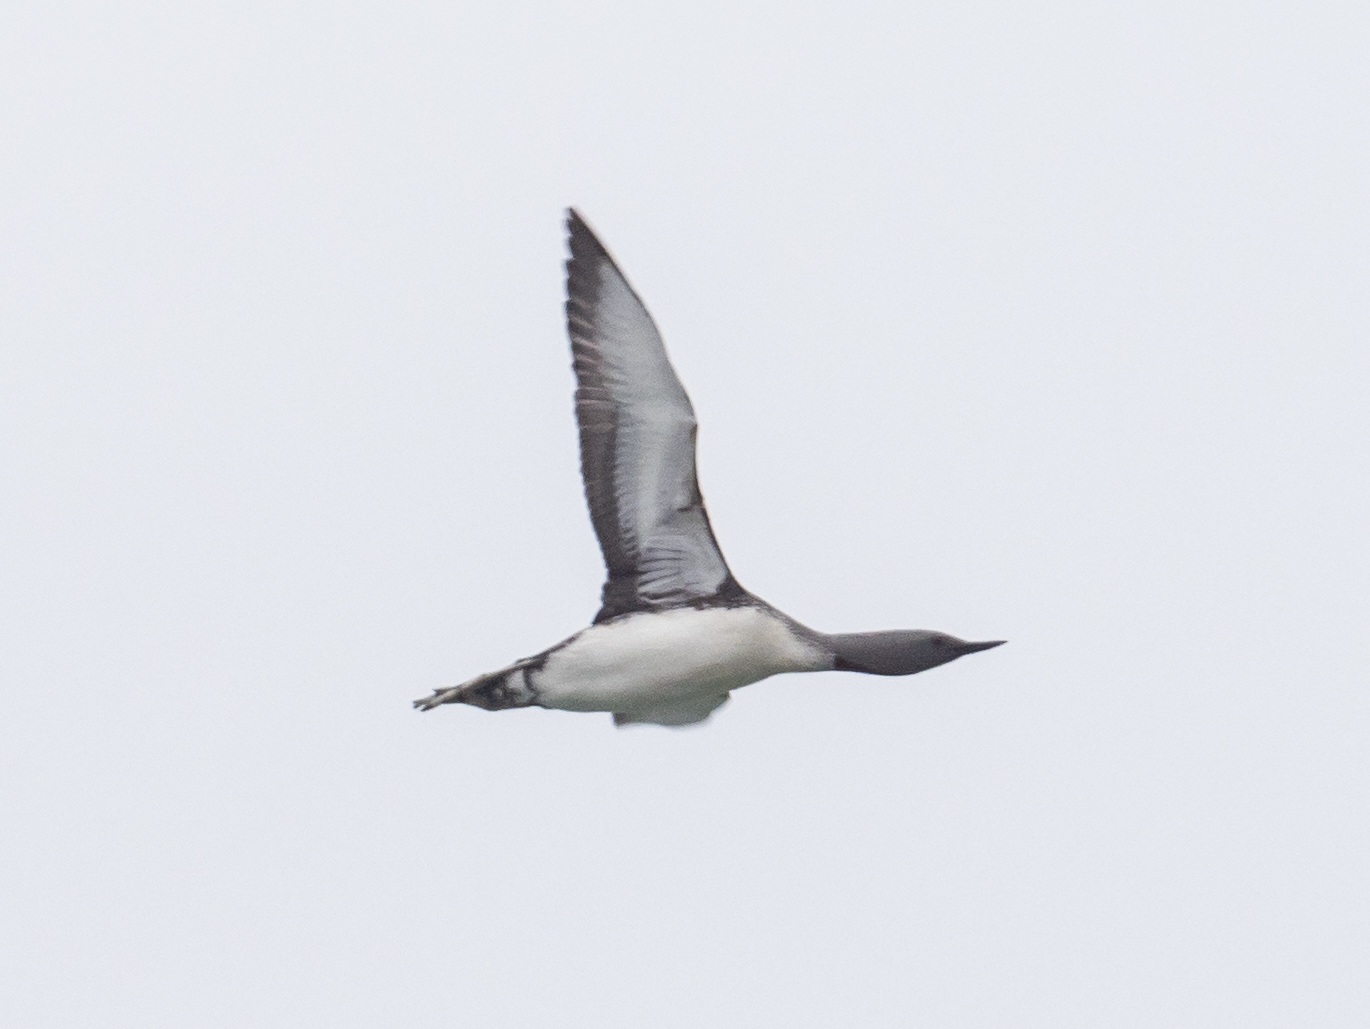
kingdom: Animalia
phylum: Chordata
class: Aves
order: Gaviiformes
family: Gaviidae
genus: Gavia
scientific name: Gavia stellata
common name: Red-throated loon
